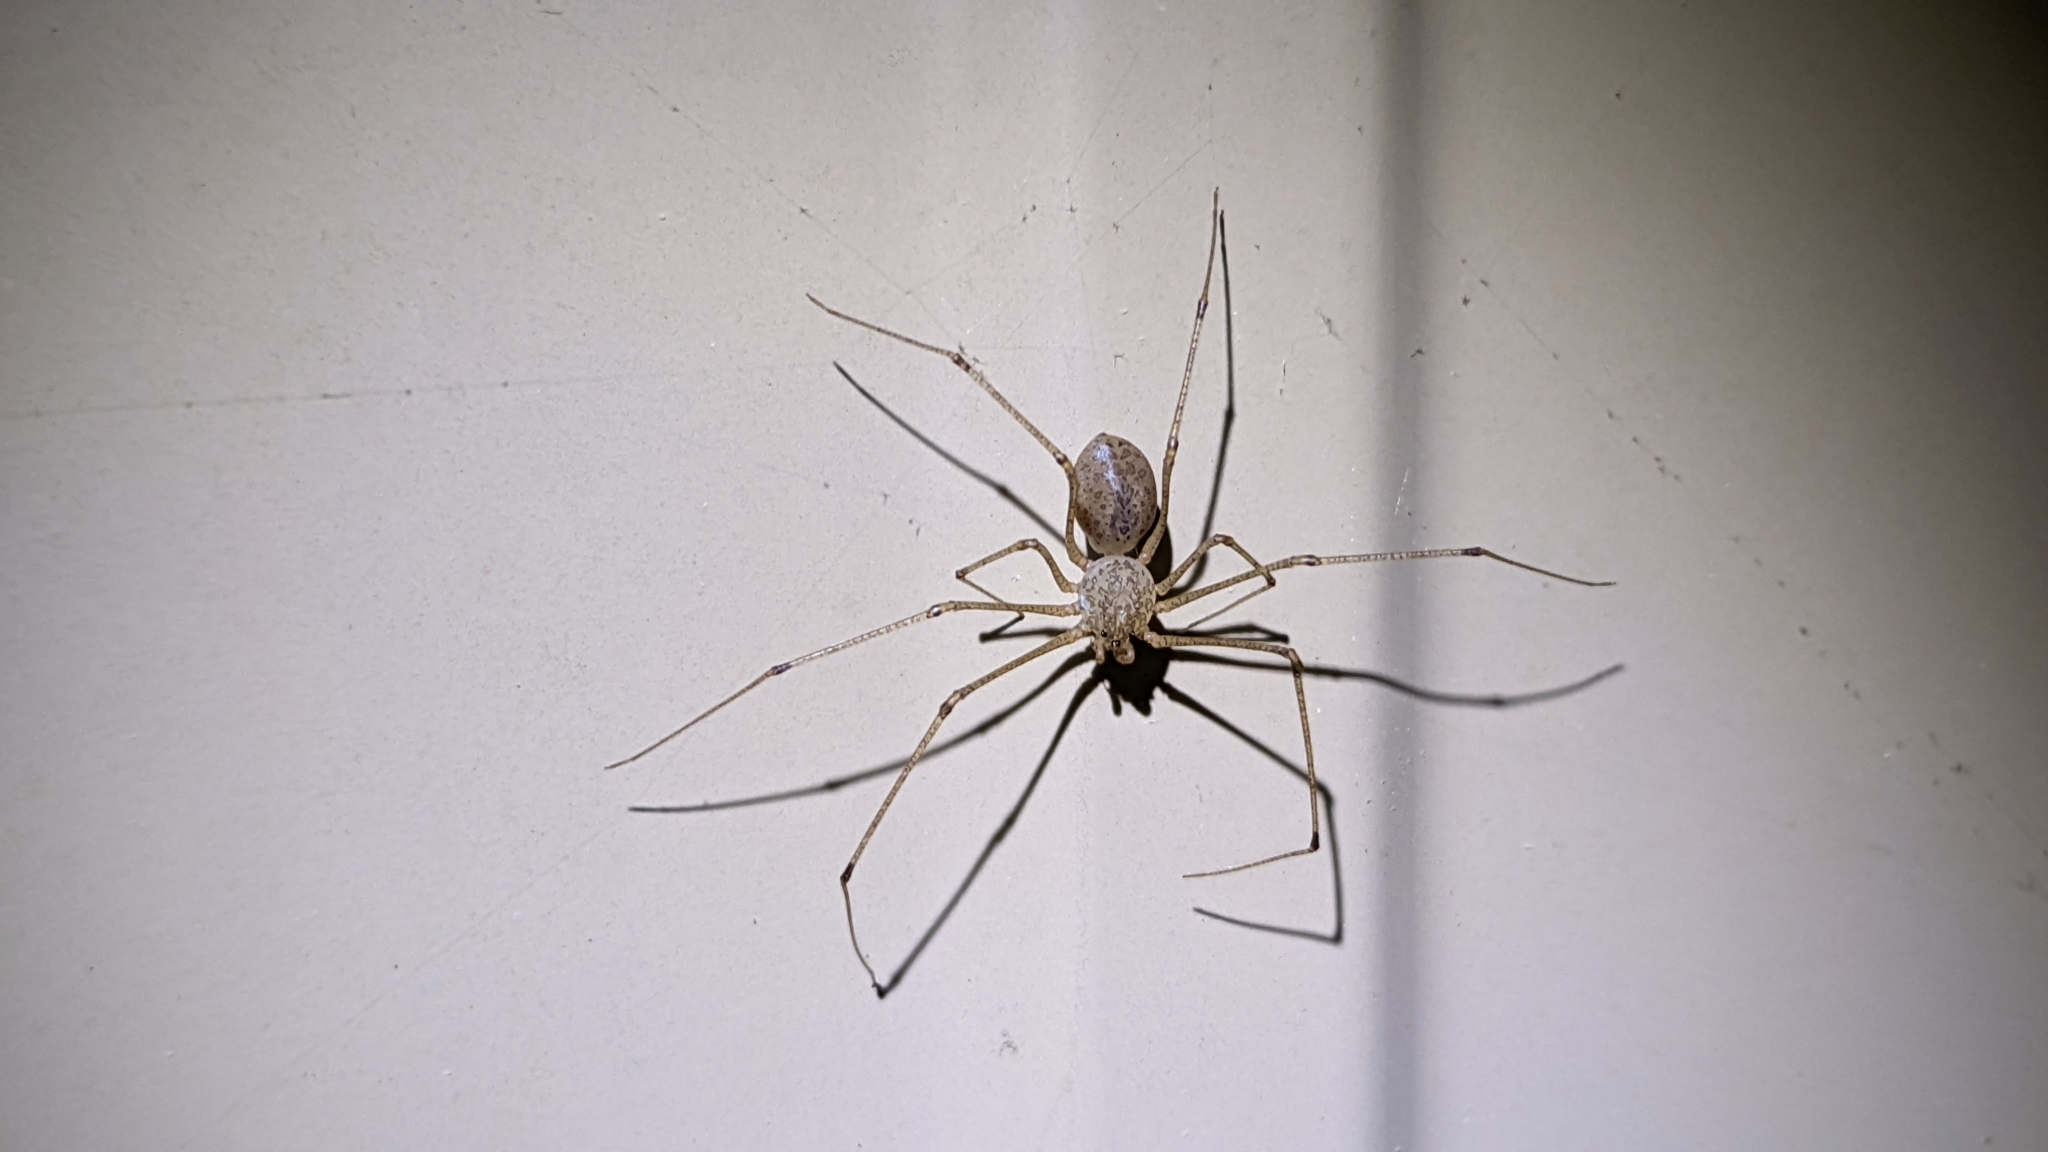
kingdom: Animalia
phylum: Arthropoda
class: Arachnida
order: Araneae
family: Scytodidae
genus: Scytodes
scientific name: Scytodes atlacoya
